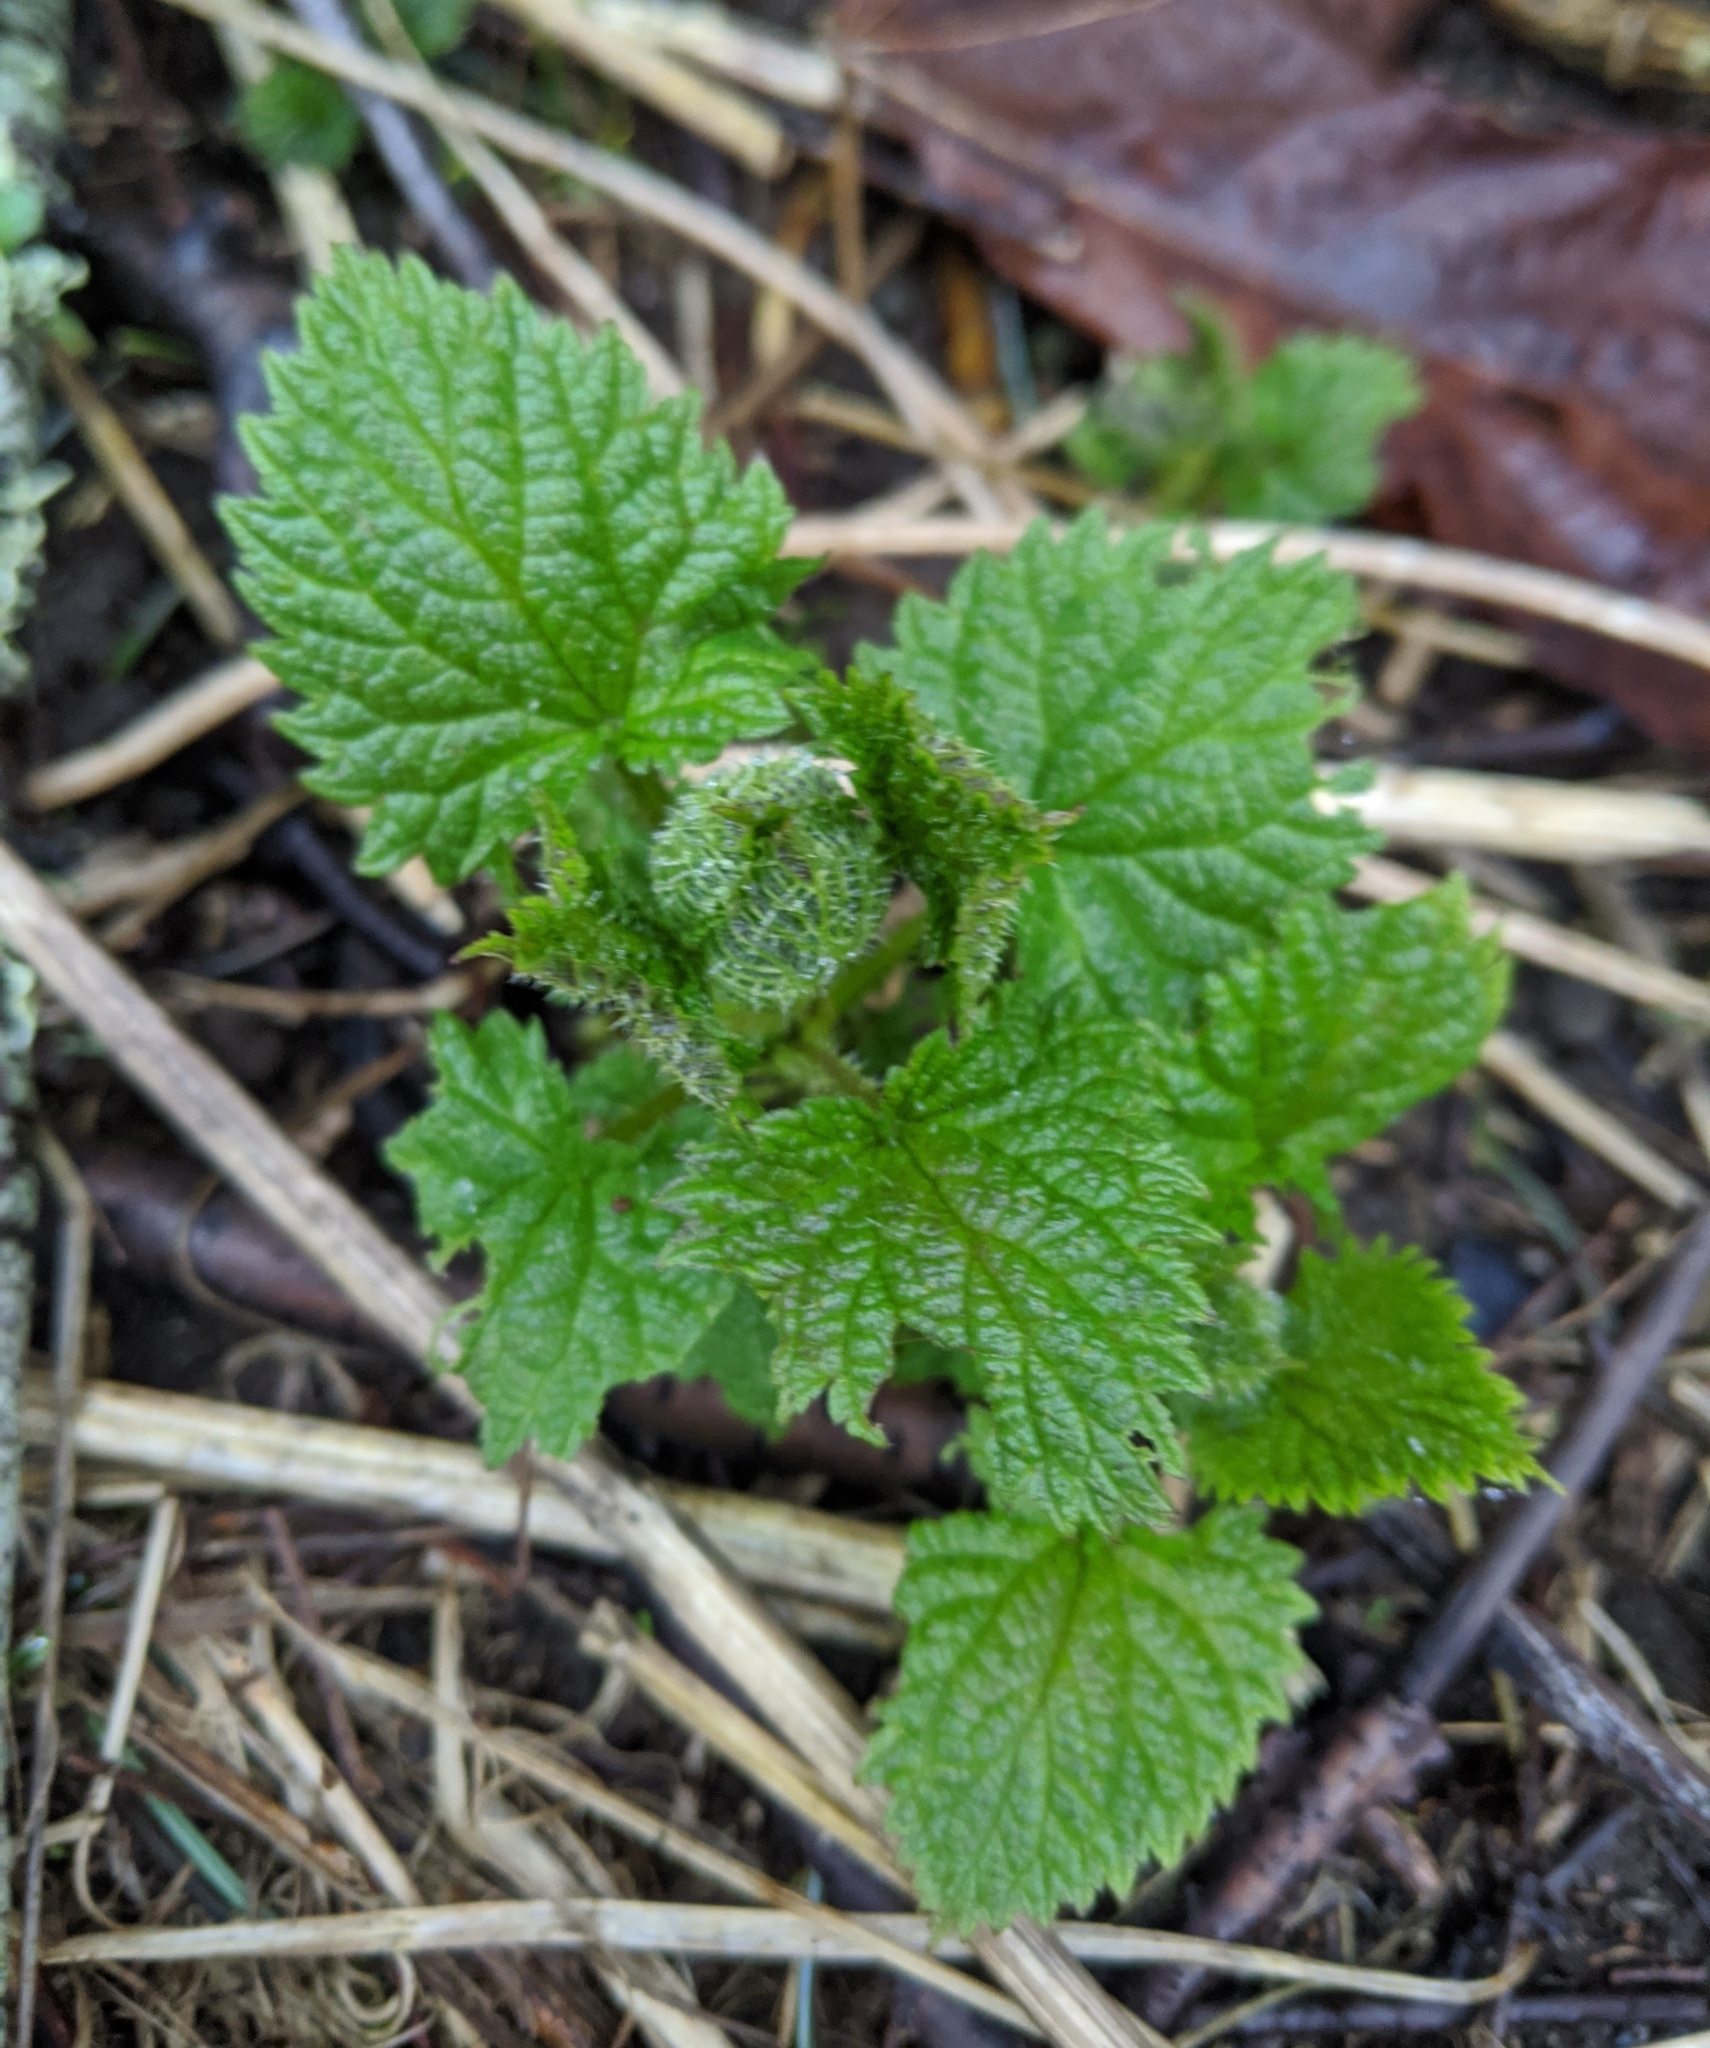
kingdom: Plantae
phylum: Tracheophyta
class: Magnoliopsida
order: Rosales
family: Urticaceae
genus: Urtica
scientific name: Urtica dioica
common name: Common nettle
